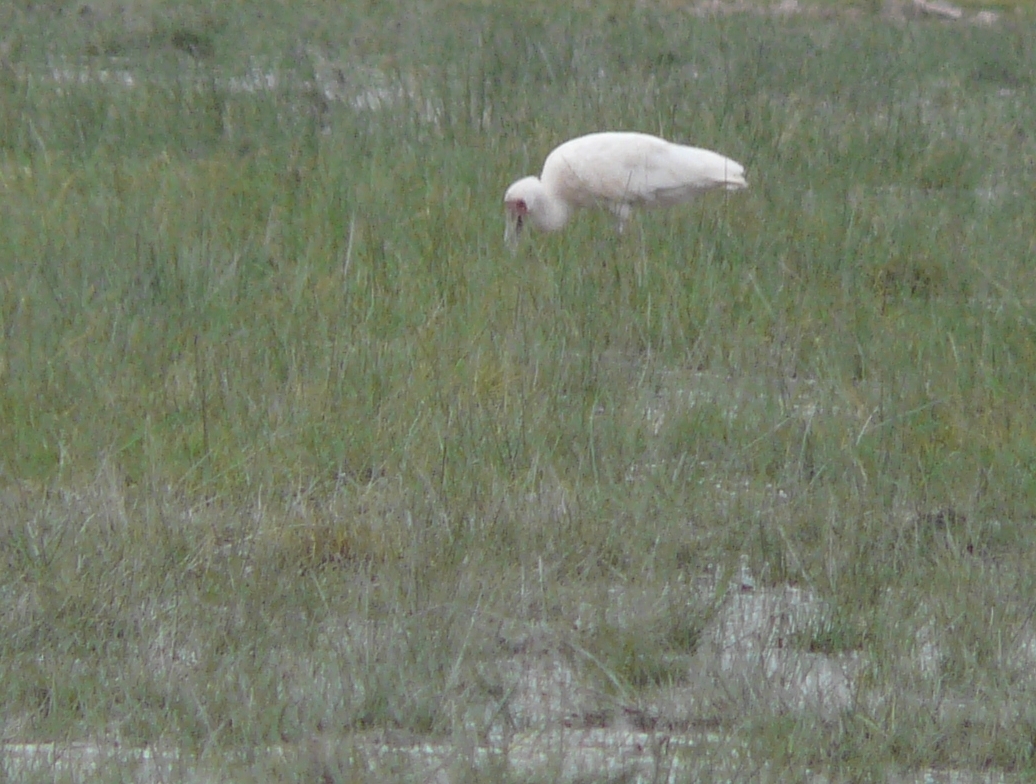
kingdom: Animalia
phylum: Chordata
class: Aves
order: Pelecaniformes
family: Threskiornithidae
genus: Platalea
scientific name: Platalea alba
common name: African spoonbill
